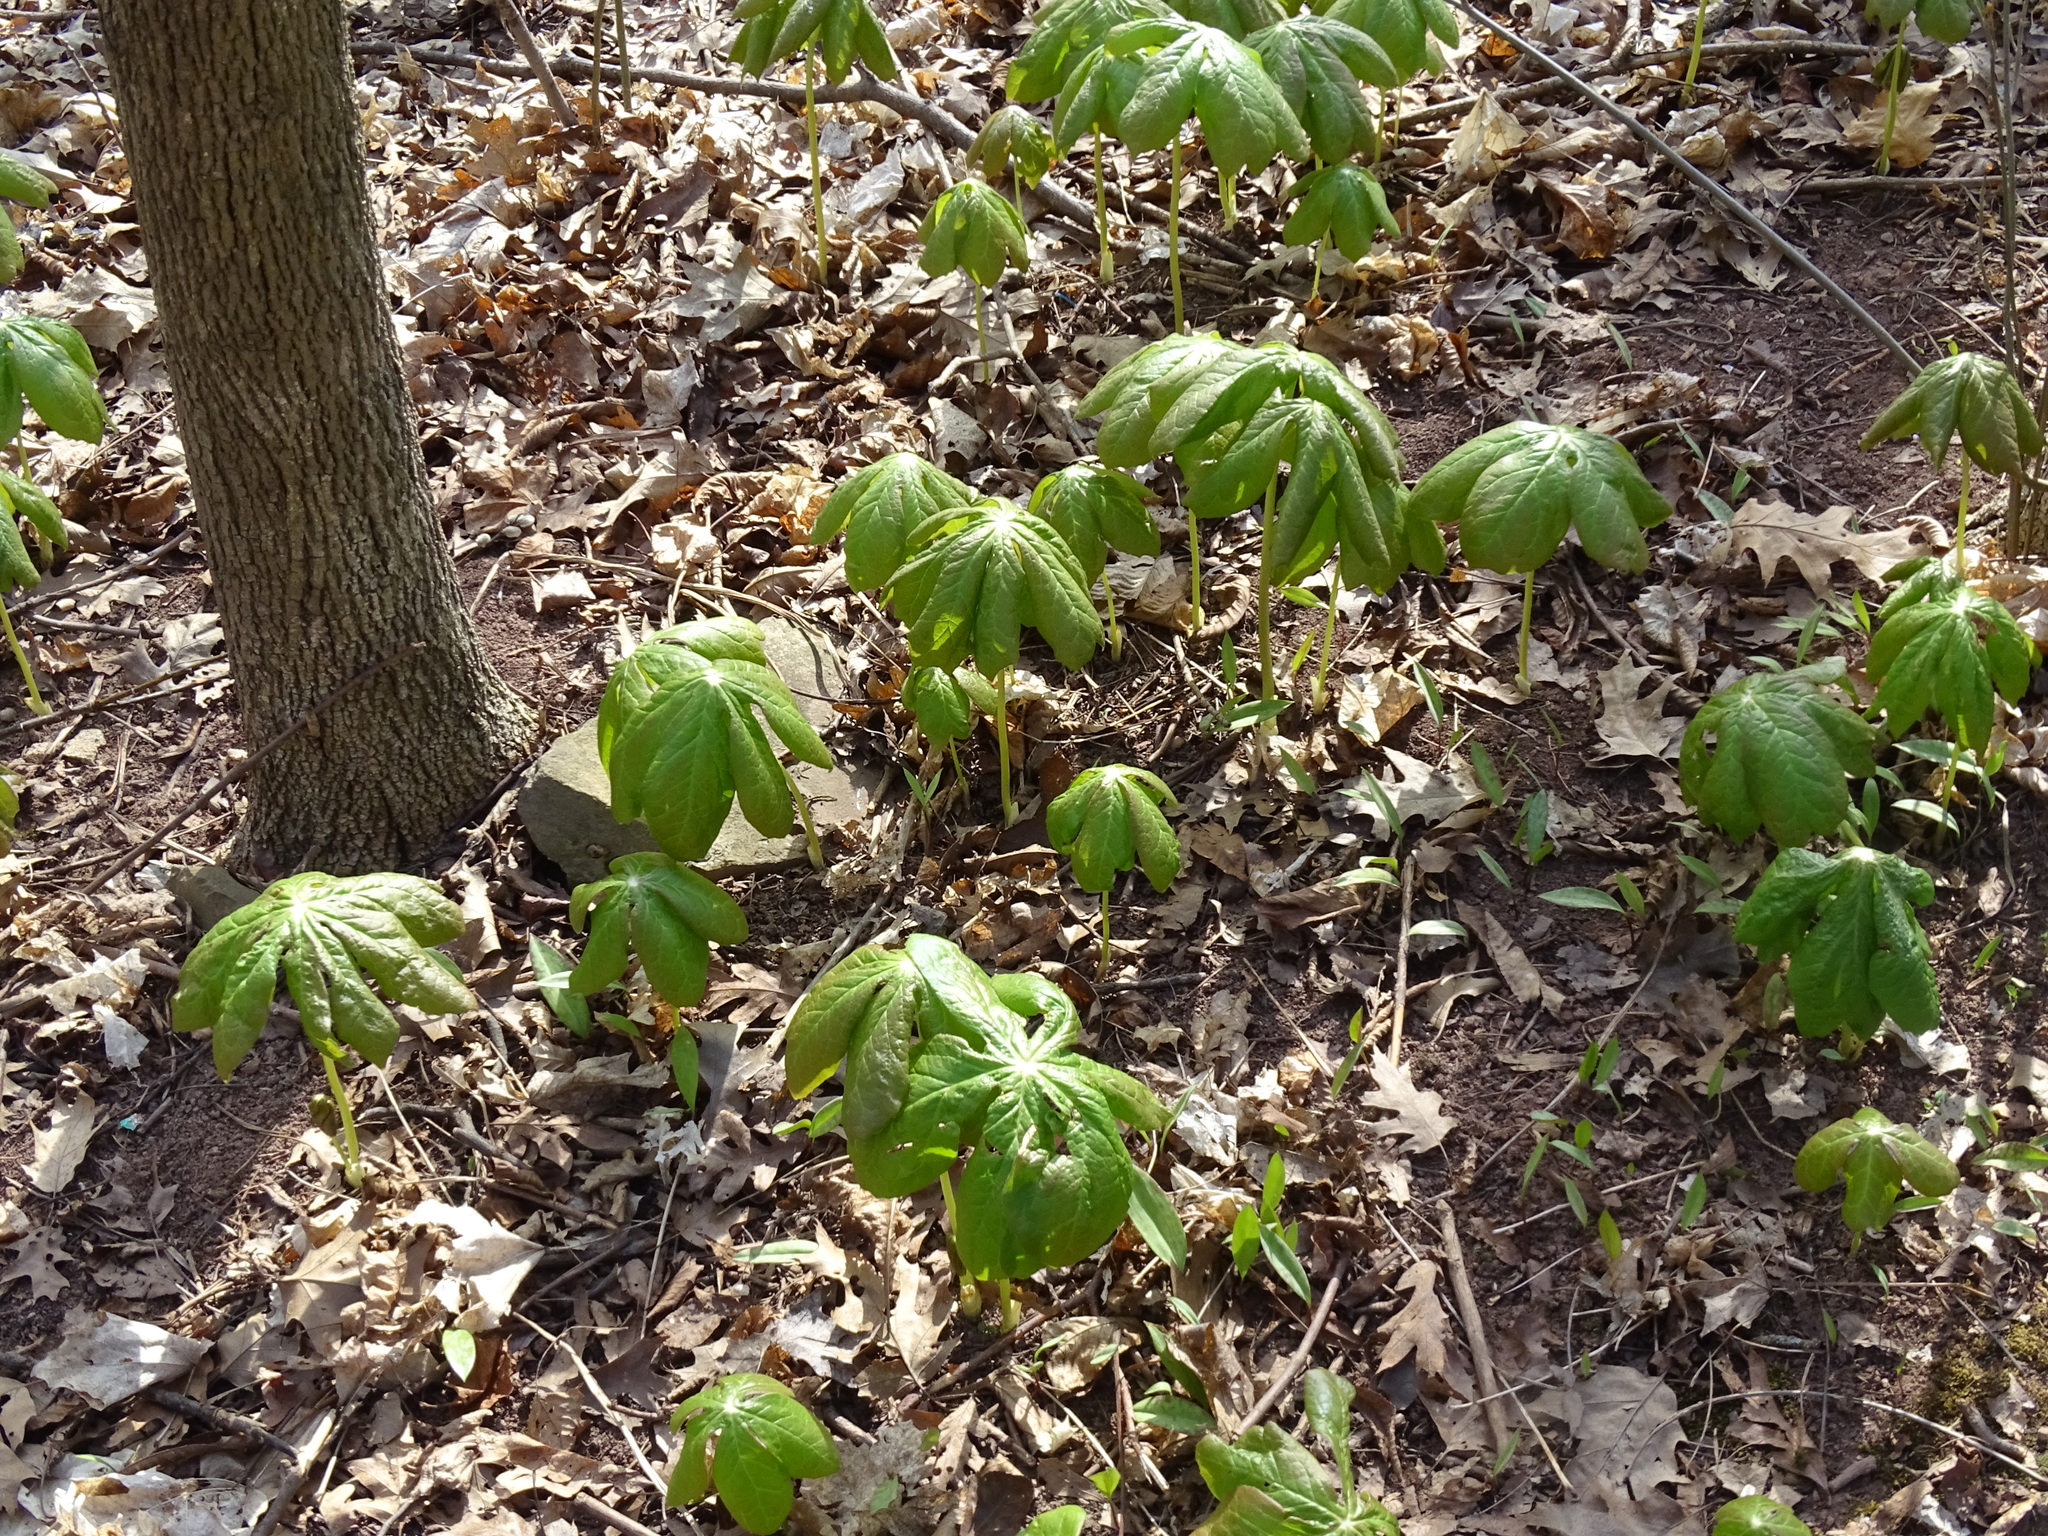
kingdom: Plantae
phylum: Tracheophyta
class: Magnoliopsida
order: Ranunculales
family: Berberidaceae
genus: Podophyllum
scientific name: Podophyllum peltatum
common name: Wild mandrake
